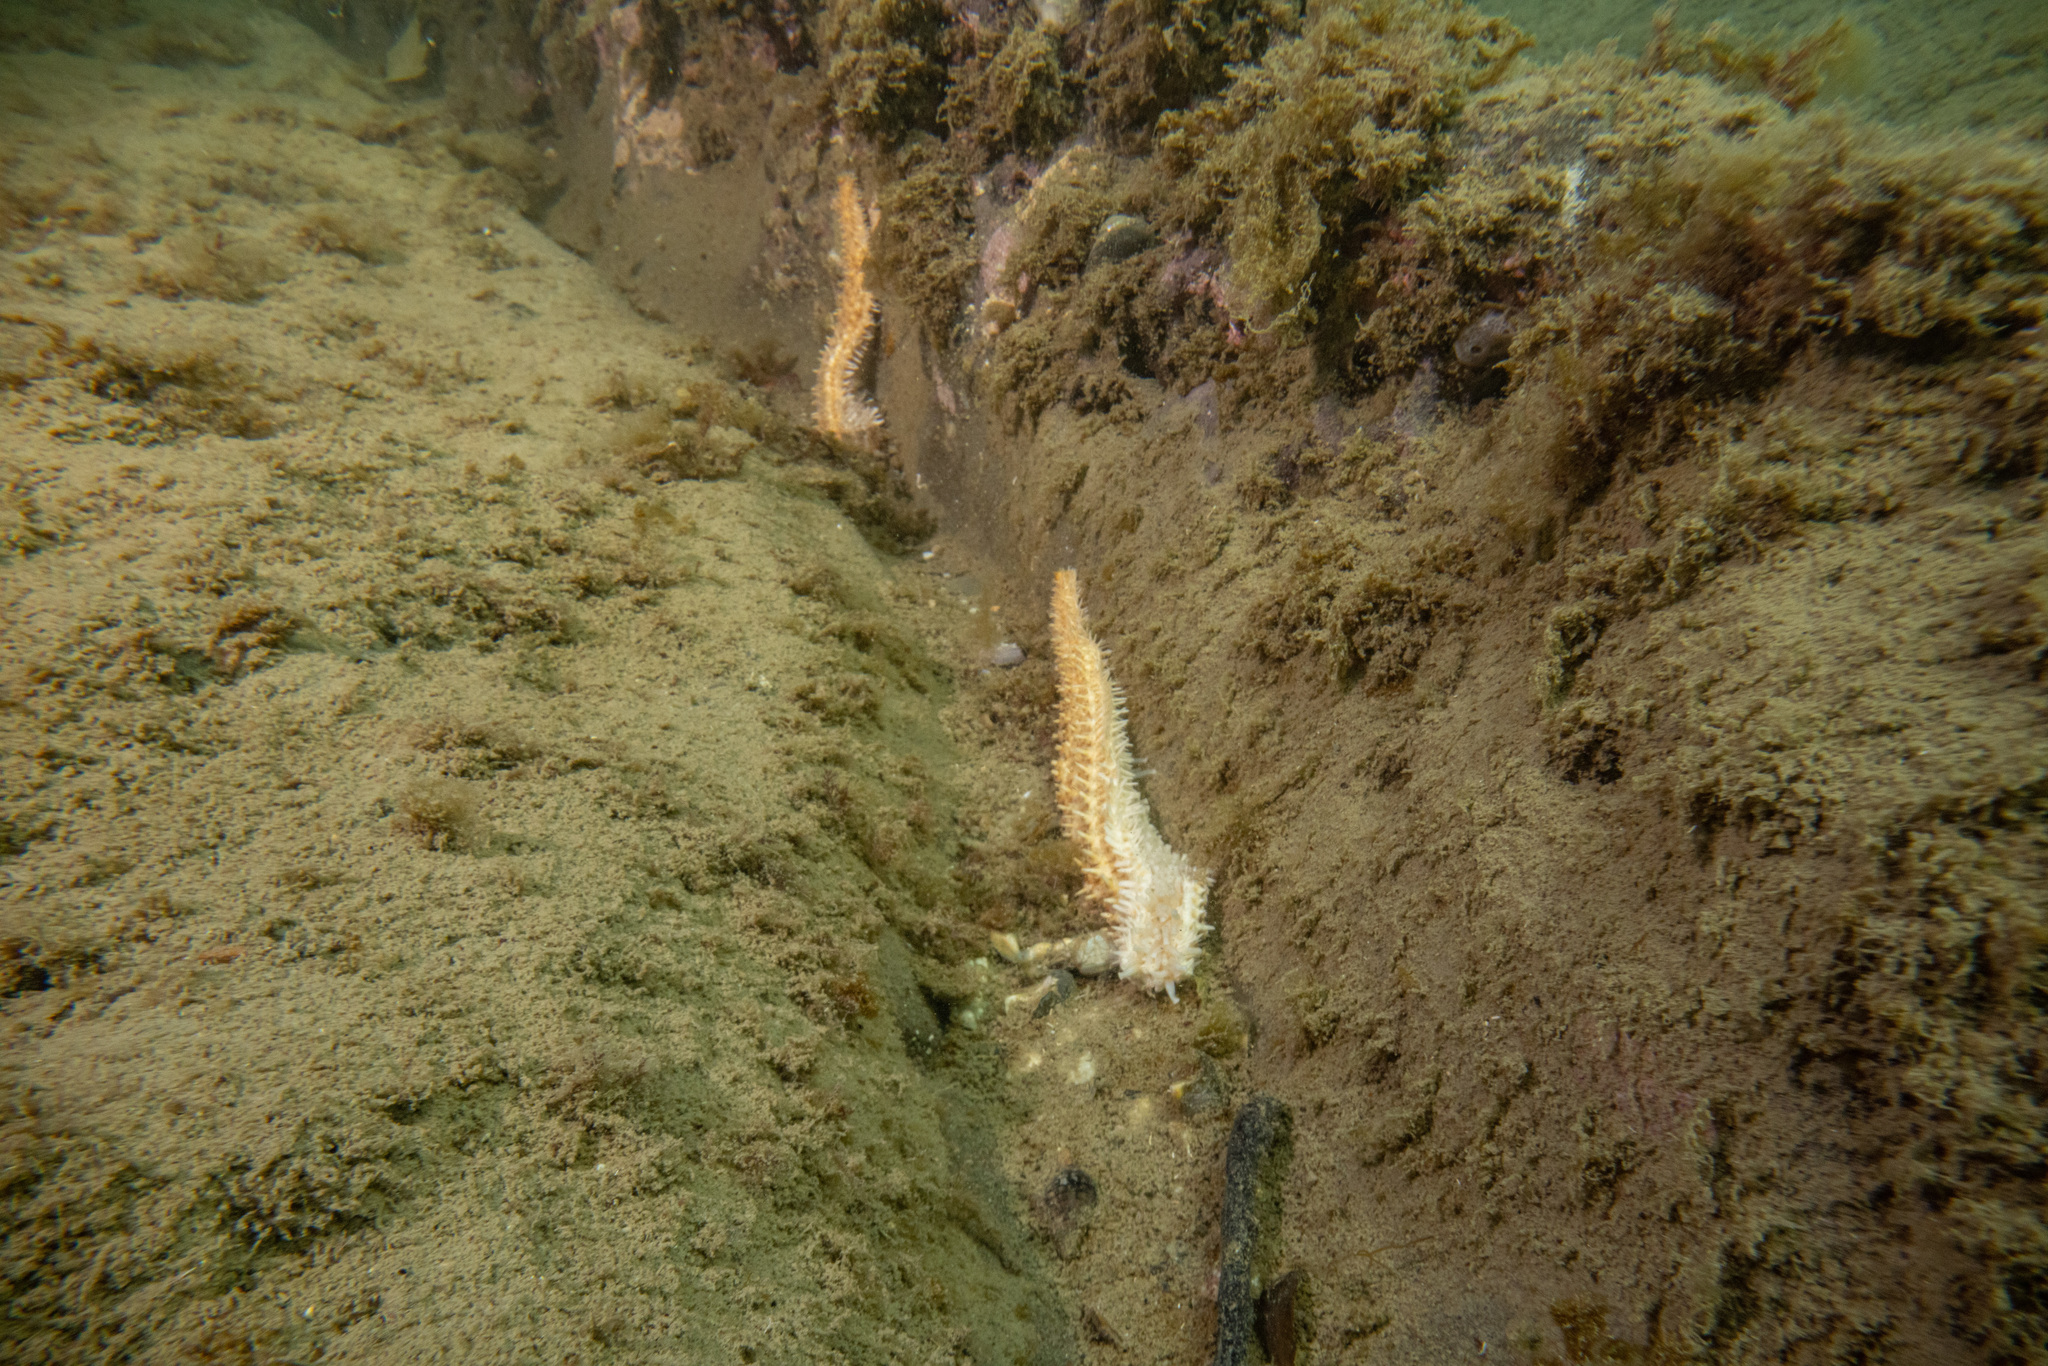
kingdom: Animalia
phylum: Echinodermata
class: Asteroidea
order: Forcipulatida
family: Asteriidae
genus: Coscinasterias
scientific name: Coscinasterias muricata
